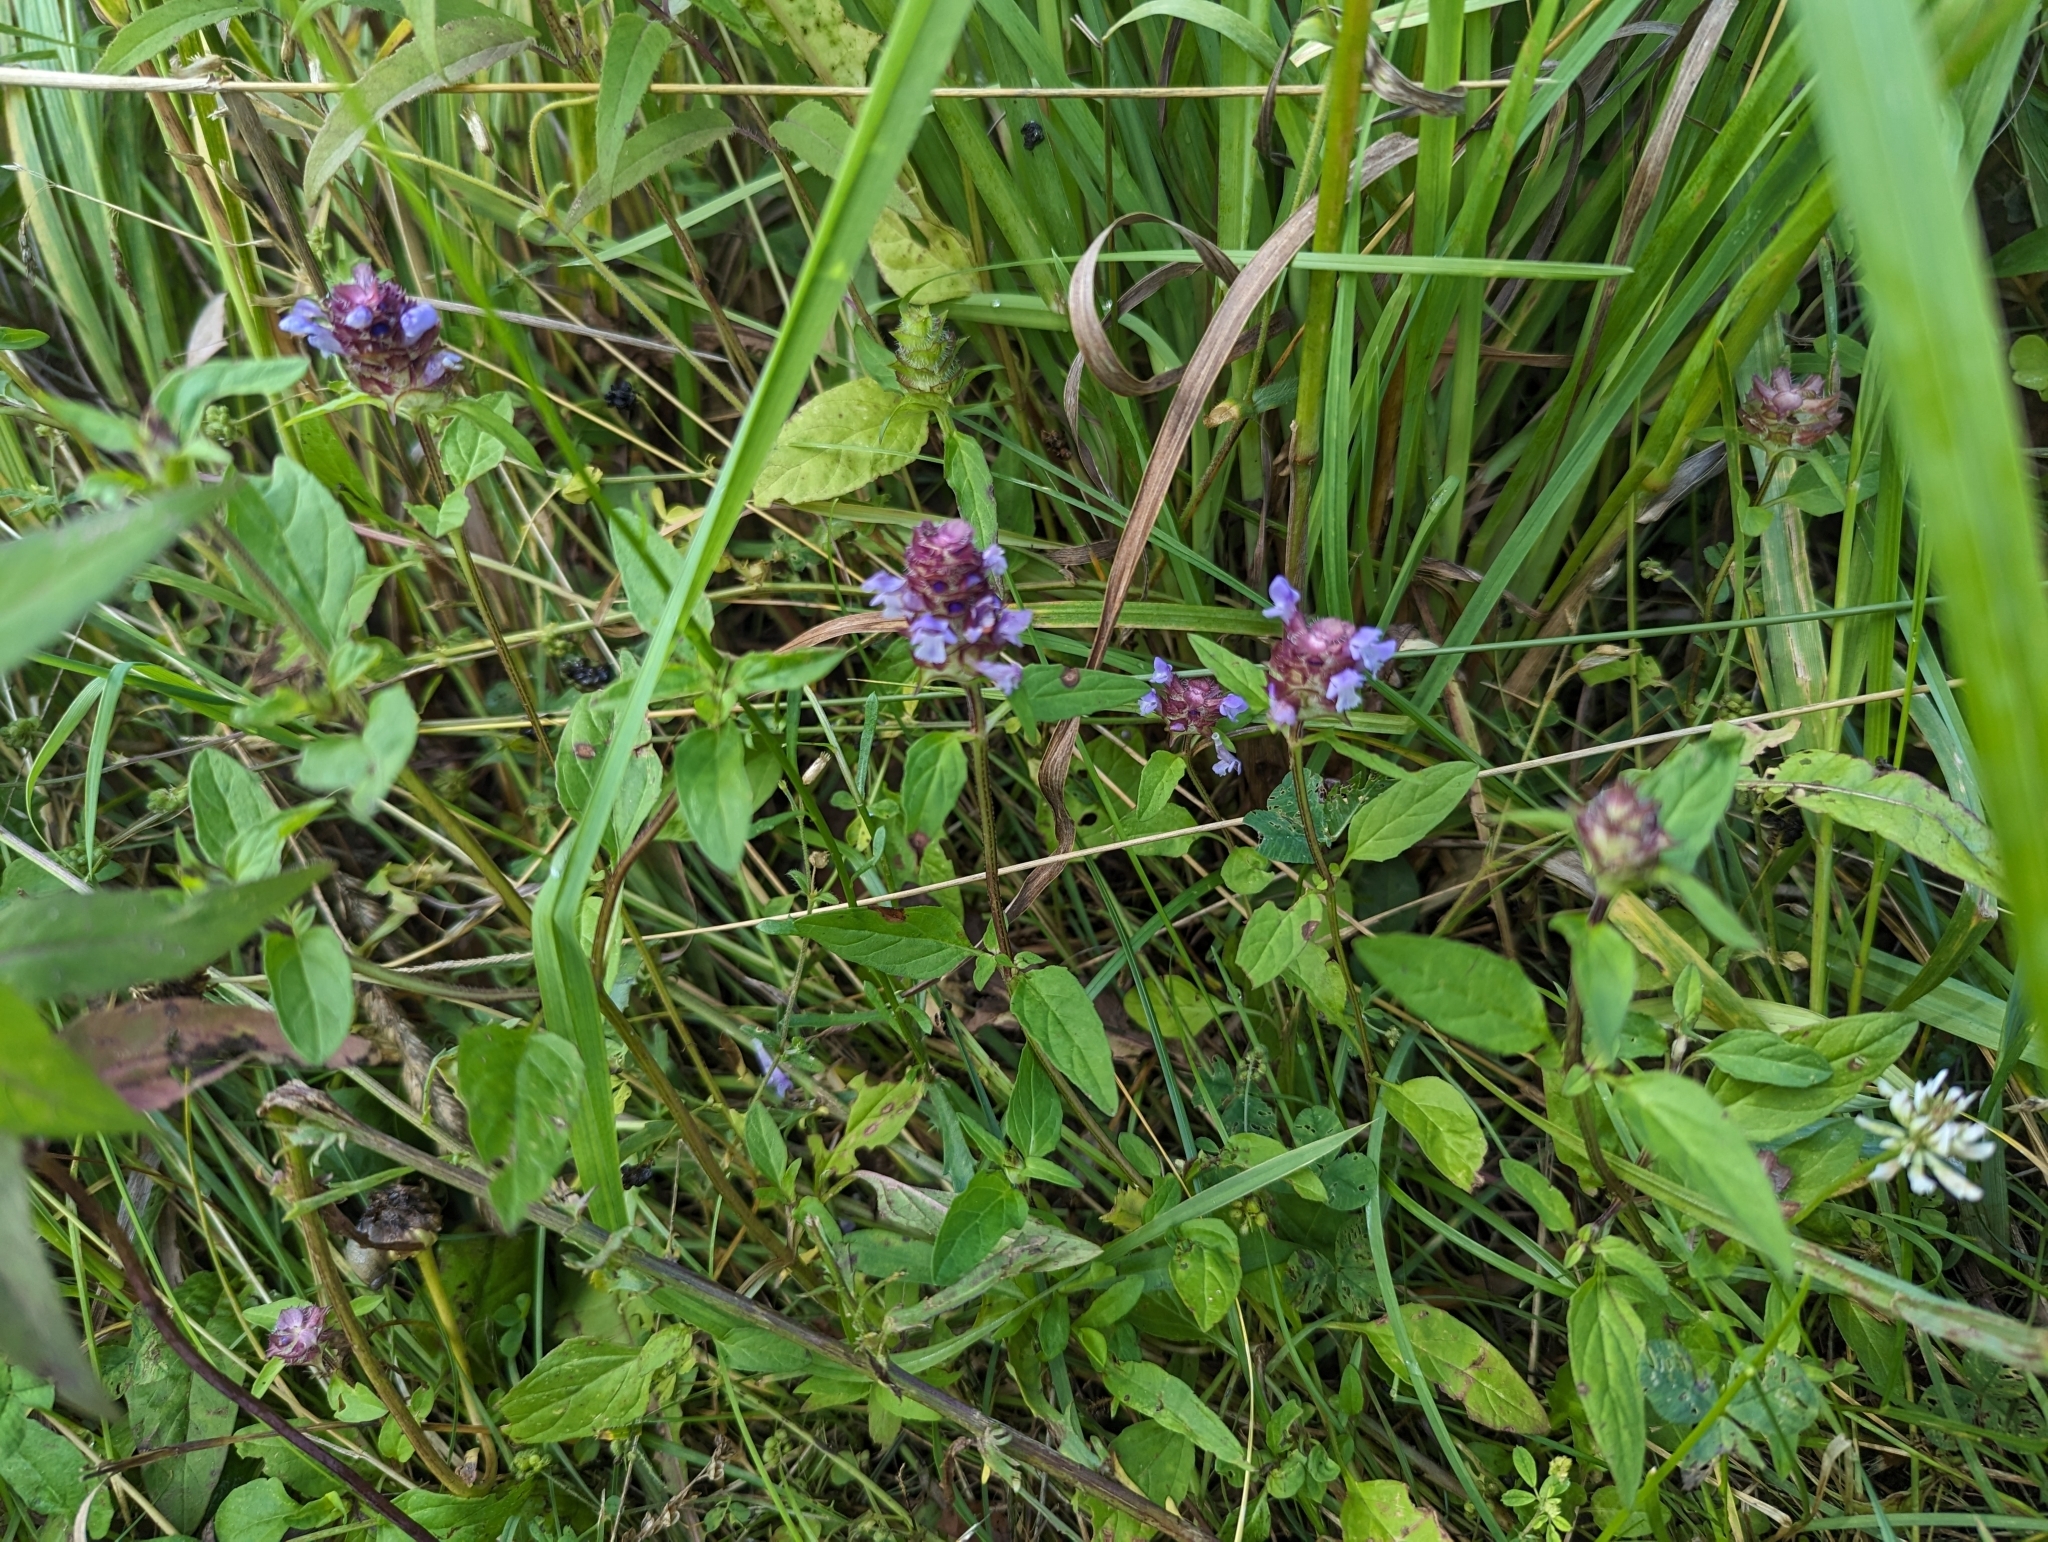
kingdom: Plantae
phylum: Tracheophyta
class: Magnoliopsida
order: Lamiales
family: Lamiaceae
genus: Prunella
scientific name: Prunella vulgaris
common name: Heal-all
